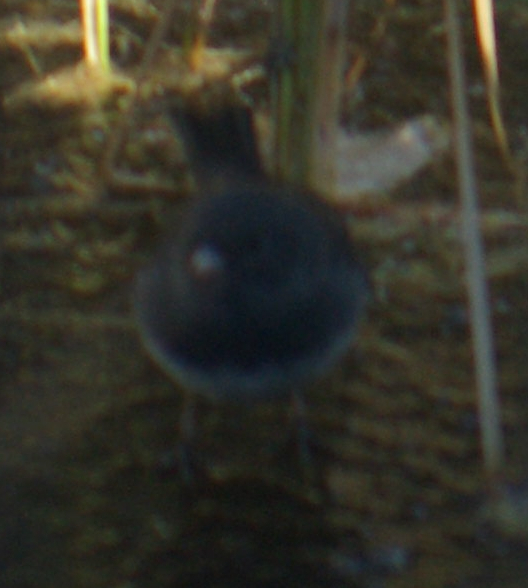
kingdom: Animalia
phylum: Chordata
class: Aves
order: Passeriformes
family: Passerellidae
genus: Junco
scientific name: Junco hyemalis
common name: Dark-eyed junco
